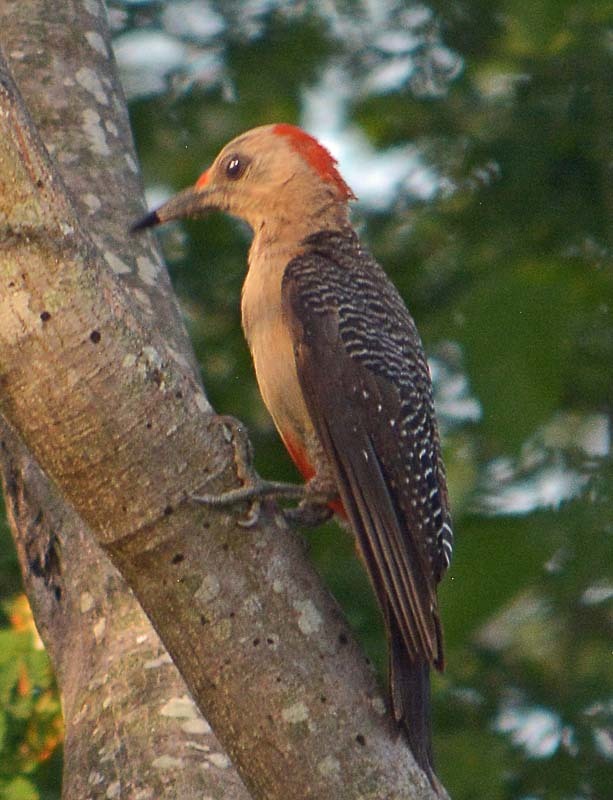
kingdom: Animalia
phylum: Chordata
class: Aves
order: Piciformes
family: Picidae
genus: Melanerpes
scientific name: Melanerpes aurifrons
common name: Golden-fronted woodpecker
